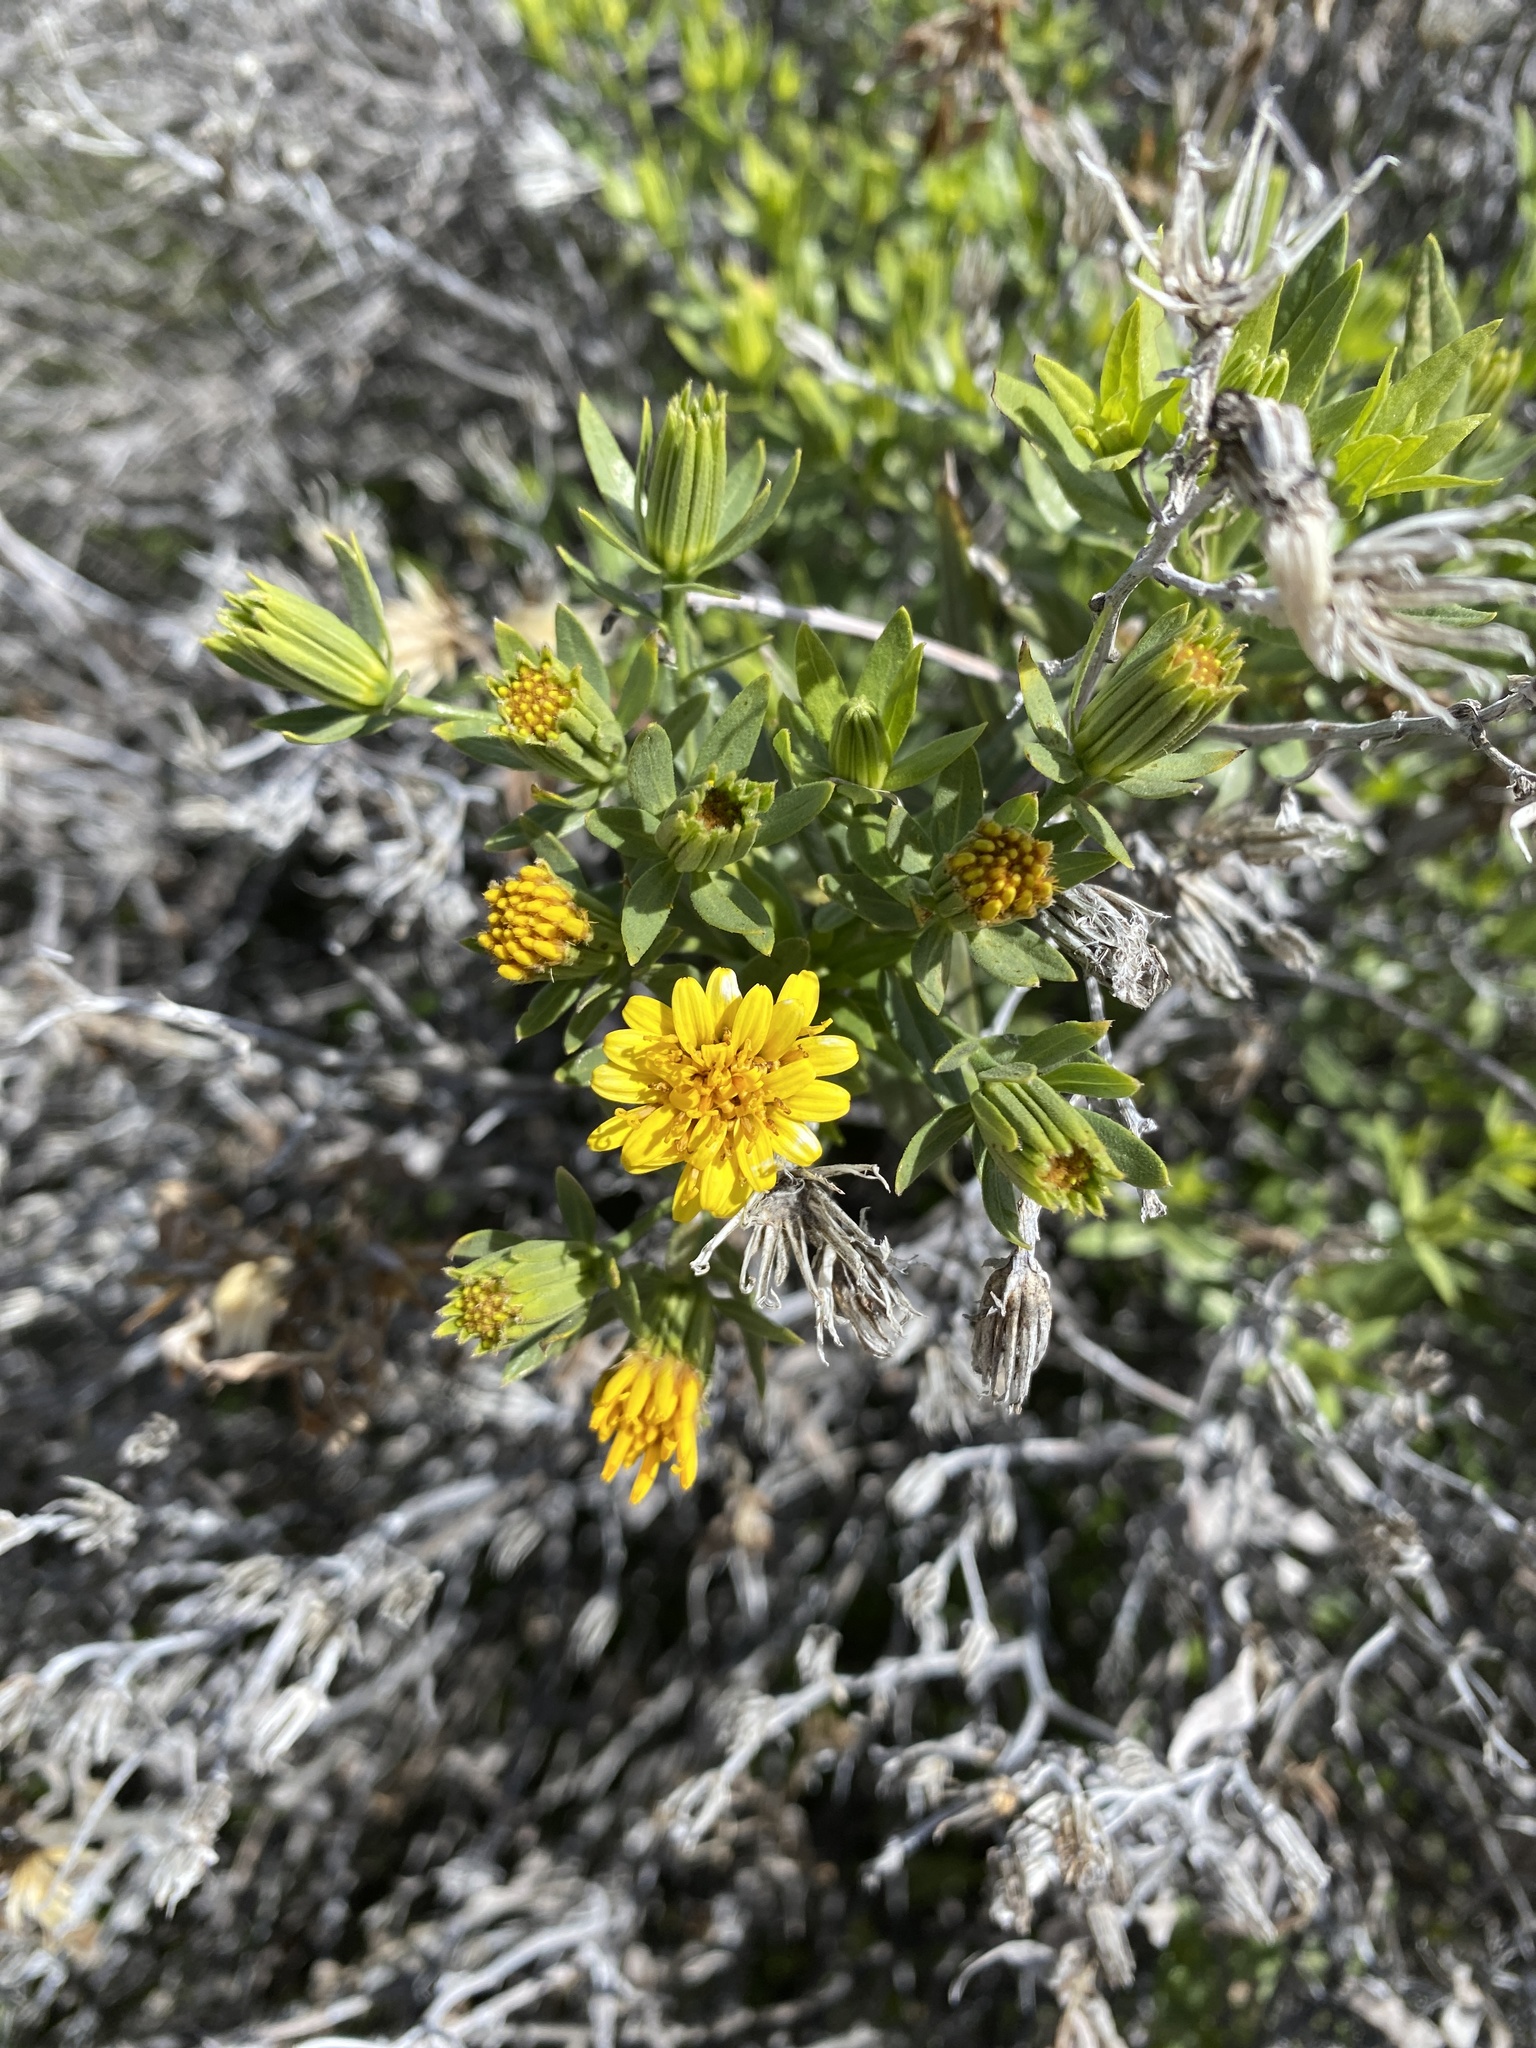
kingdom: Plantae
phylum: Tracheophyta
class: Magnoliopsida
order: Asterales
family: Asteraceae
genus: Trixis
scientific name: Trixis californica
